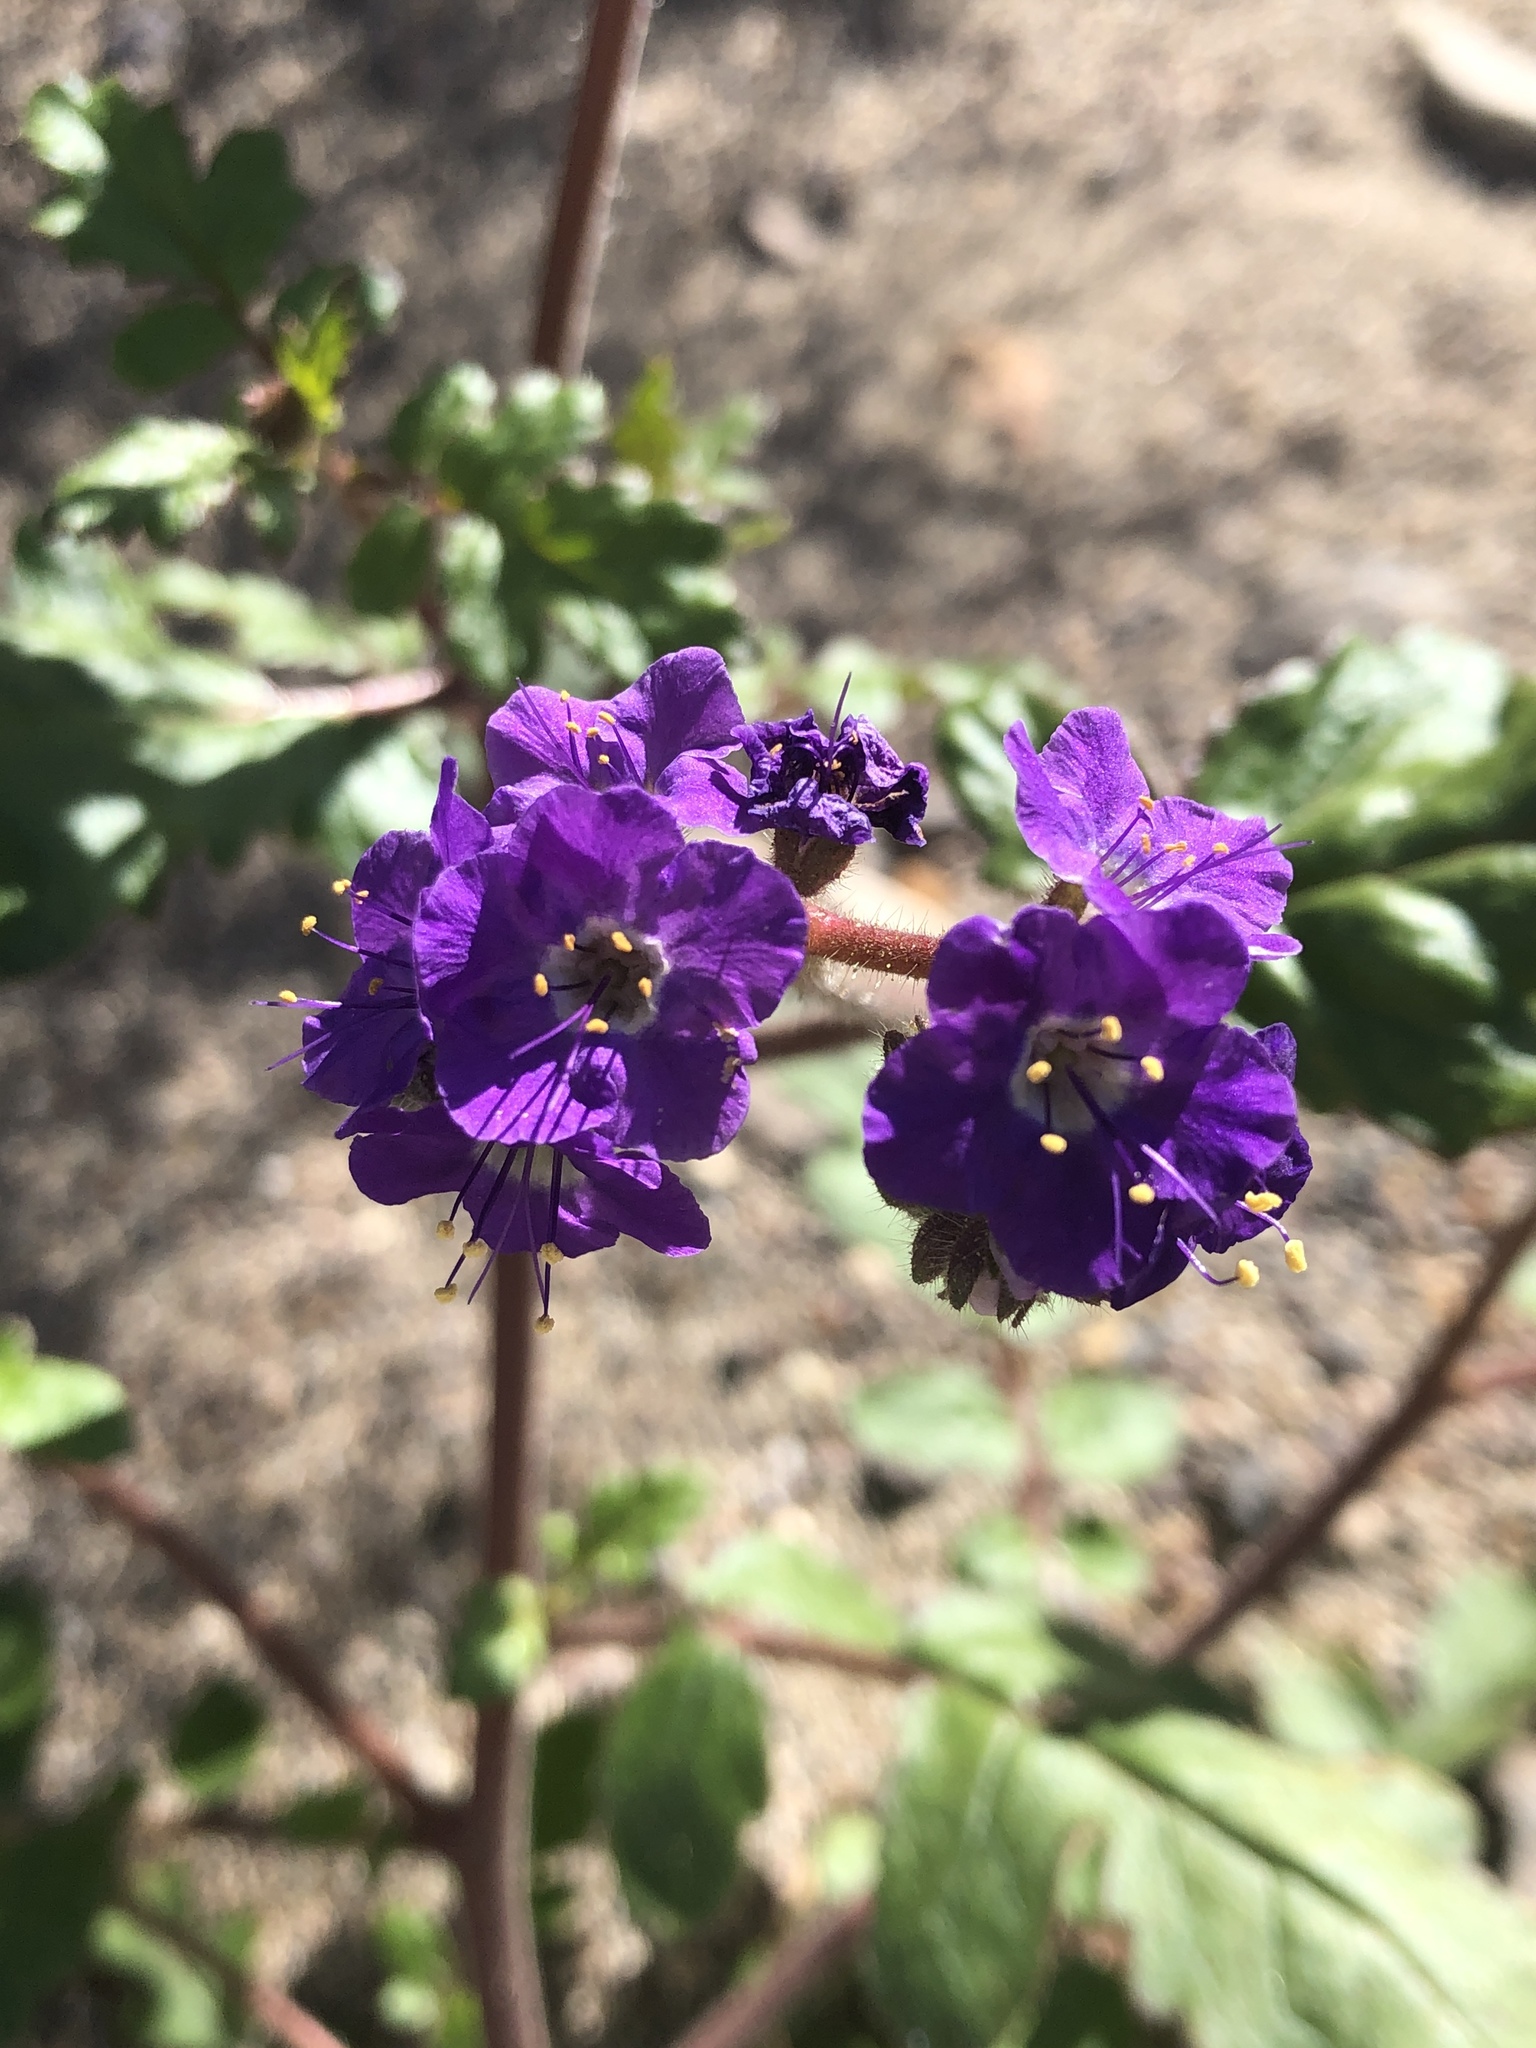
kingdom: Plantae
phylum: Tracheophyta
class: Magnoliopsida
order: Boraginales
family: Hydrophyllaceae
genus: Phacelia
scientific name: Phacelia crenulata
